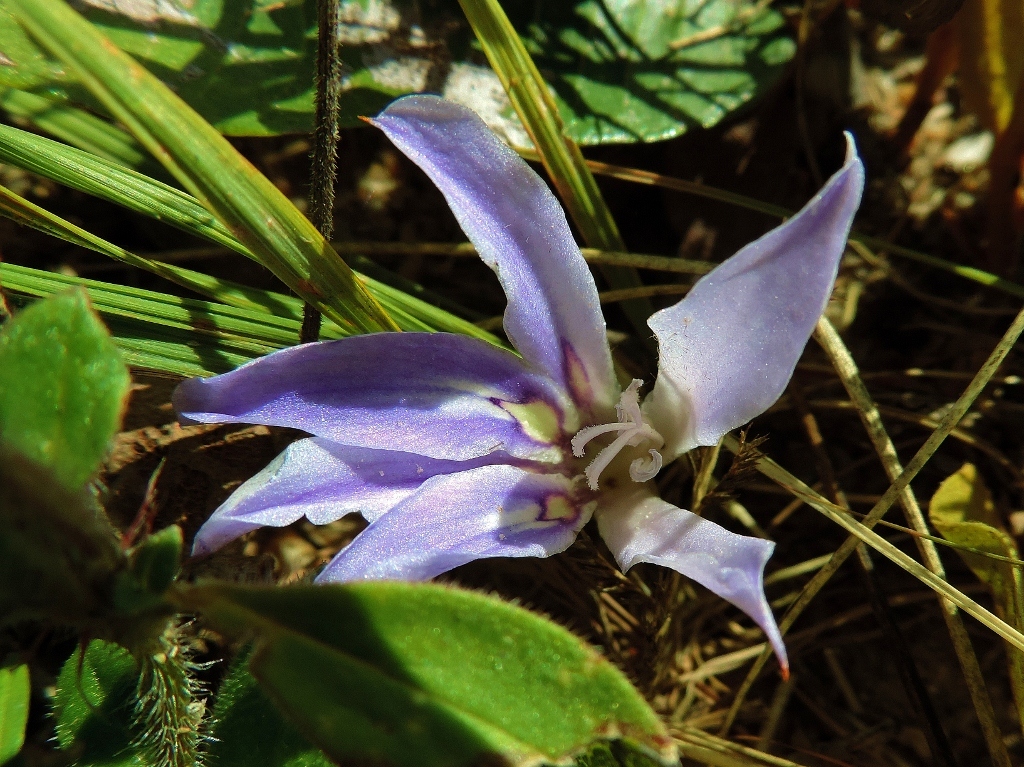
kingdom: Plantae
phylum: Tracheophyta
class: Liliopsida
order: Asparagales
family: Iridaceae
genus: Babiana
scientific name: Babiana bainesii
